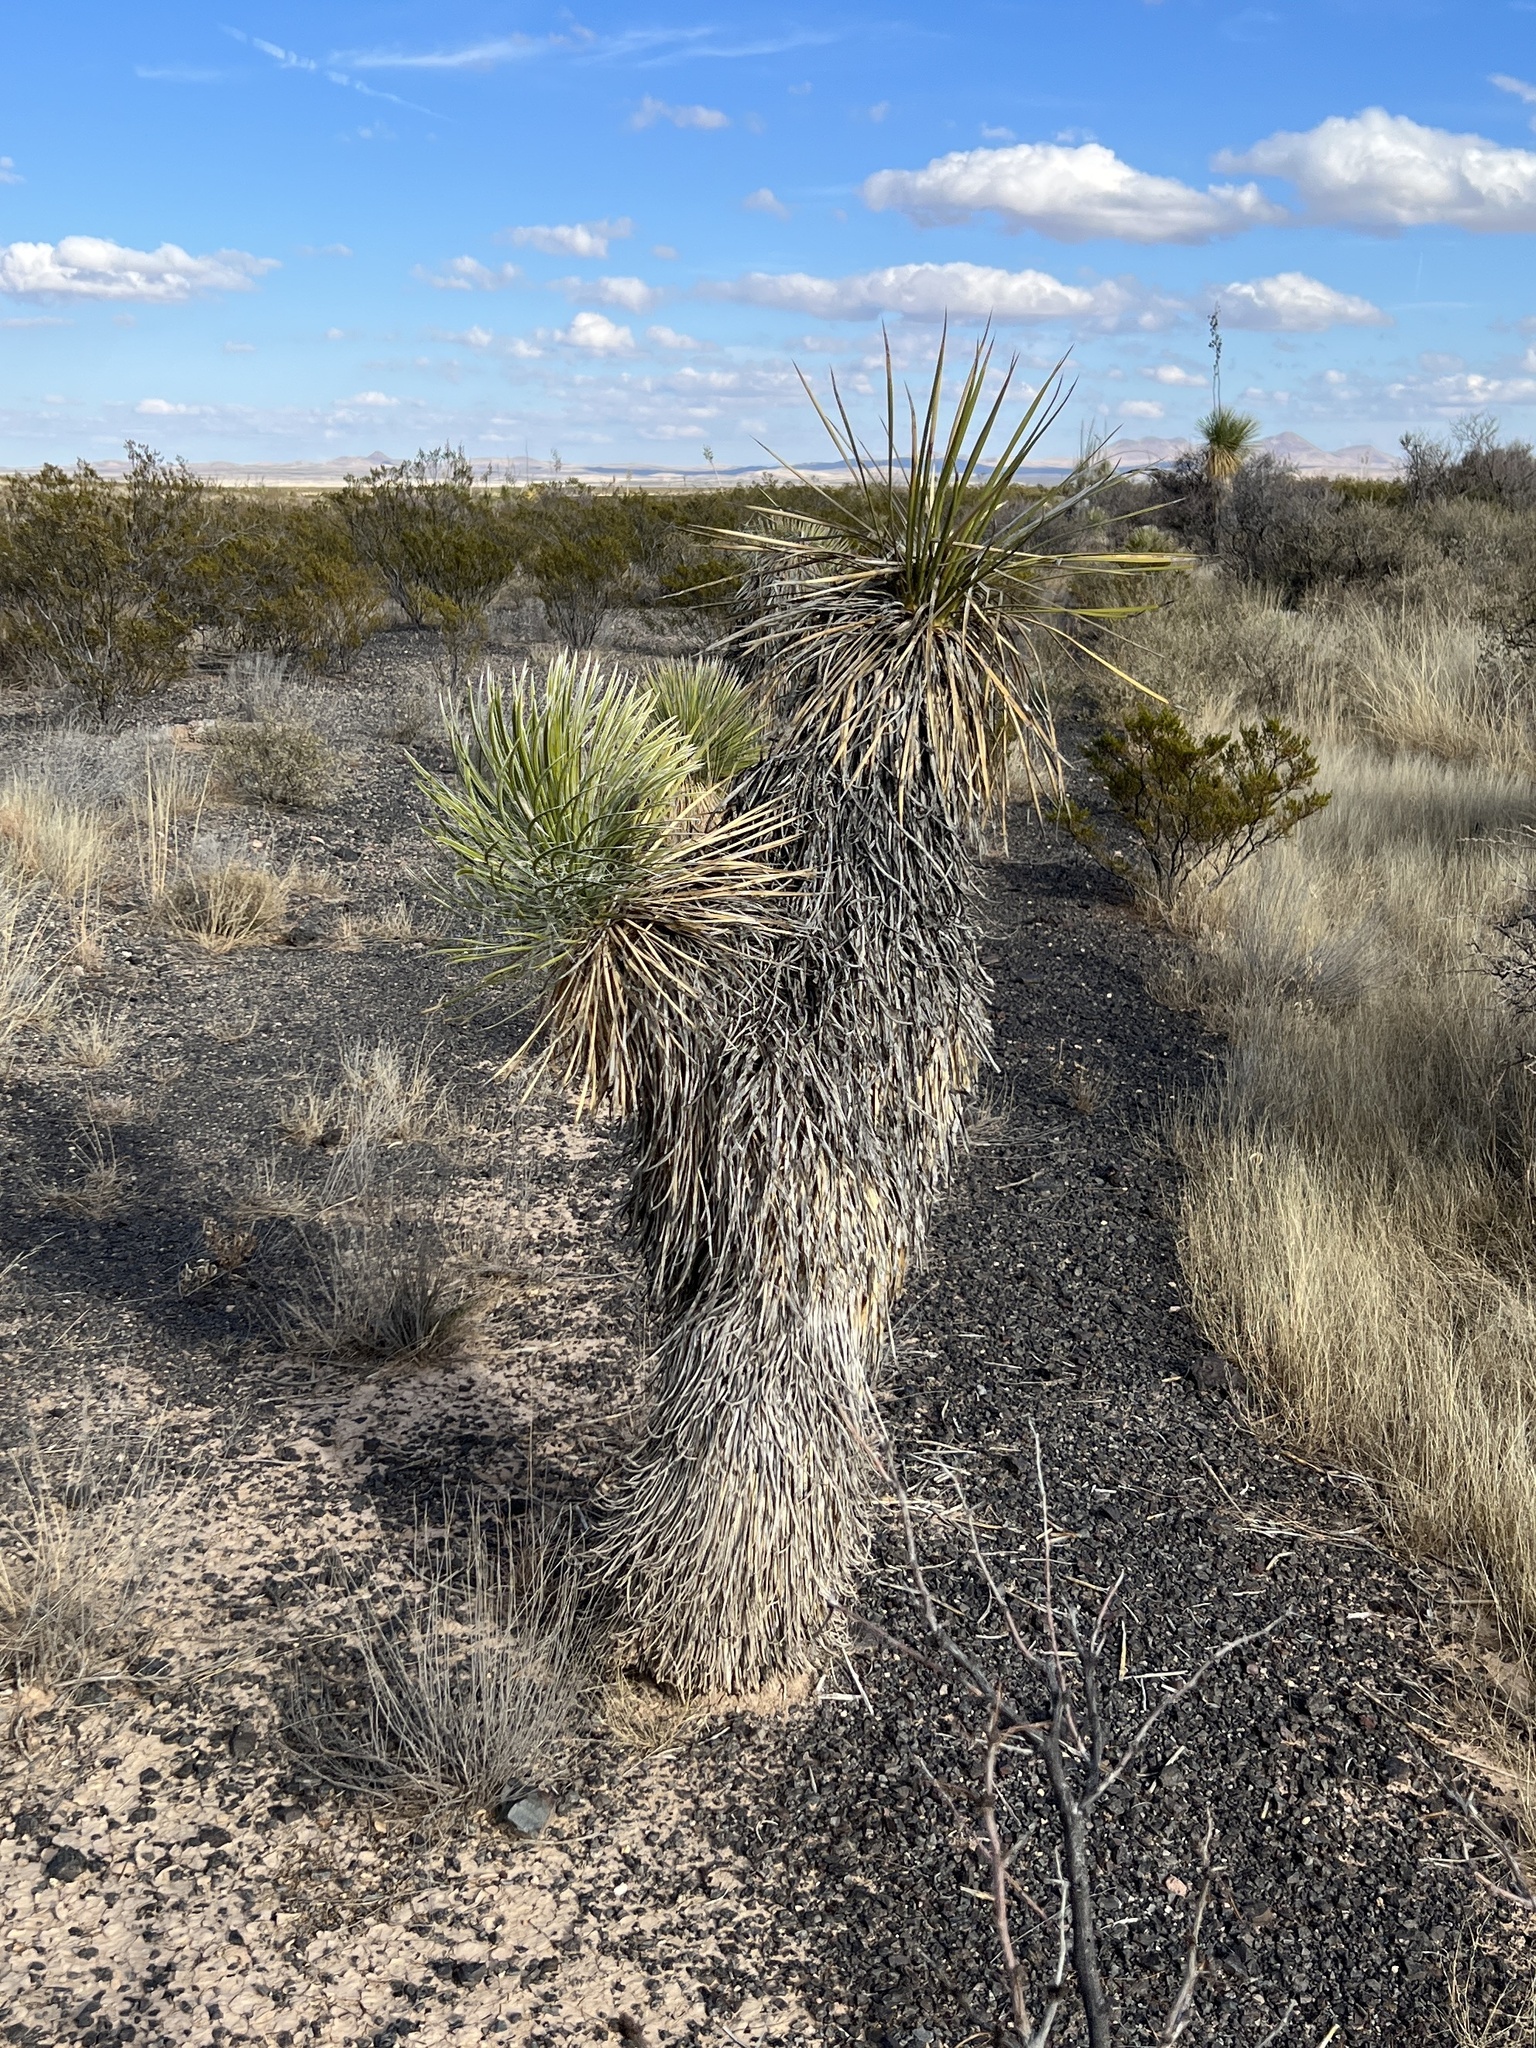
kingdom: Plantae
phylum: Tracheophyta
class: Liliopsida
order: Asparagales
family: Asparagaceae
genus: Yucca
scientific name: Yucca elata
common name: Palmella
